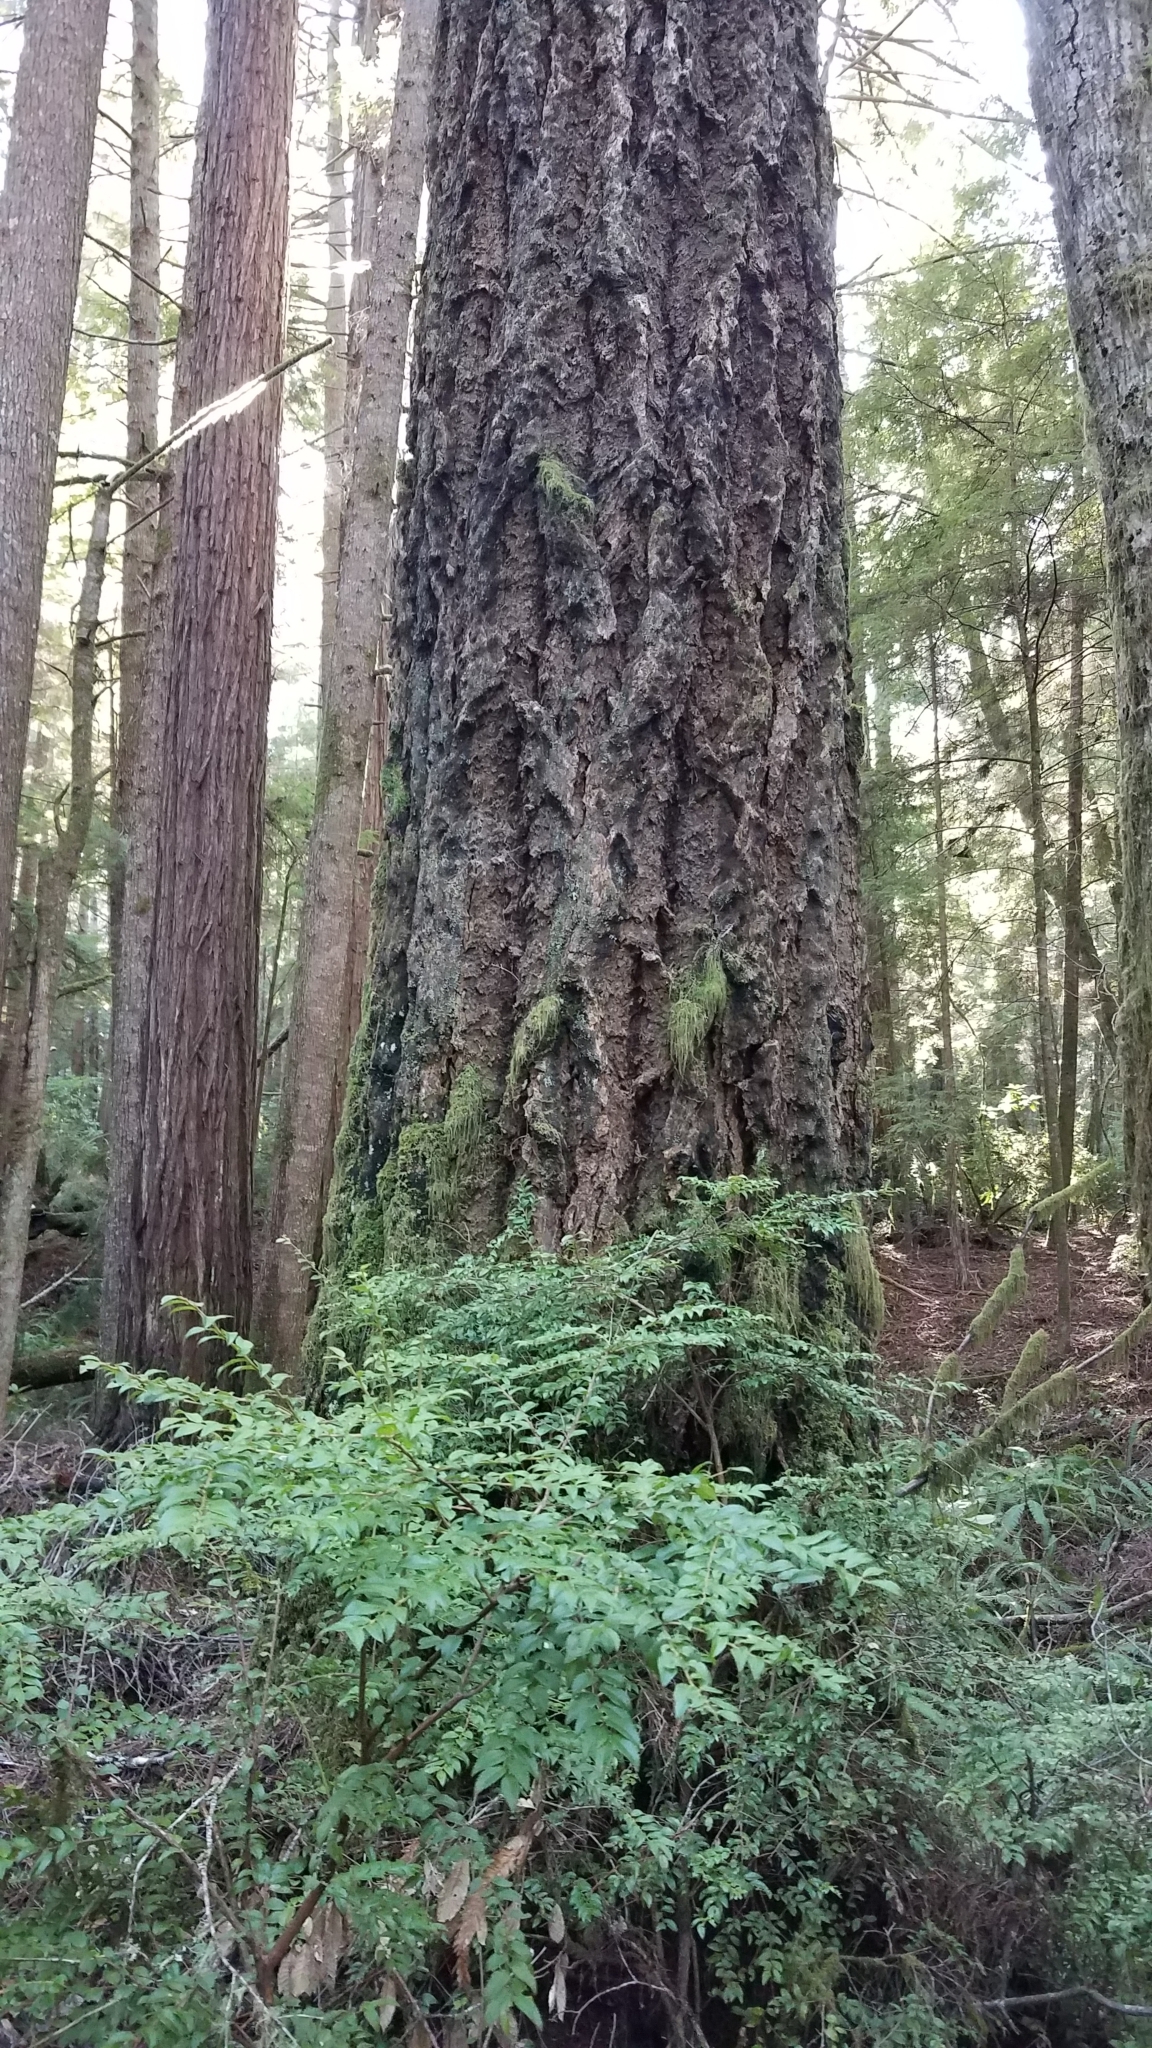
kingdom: Plantae
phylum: Tracheophyta
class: Pinopsida
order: Pinales
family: Pinaceae
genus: Pseudotsuga
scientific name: Pseudotsuga menziesii
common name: Douglas fir
